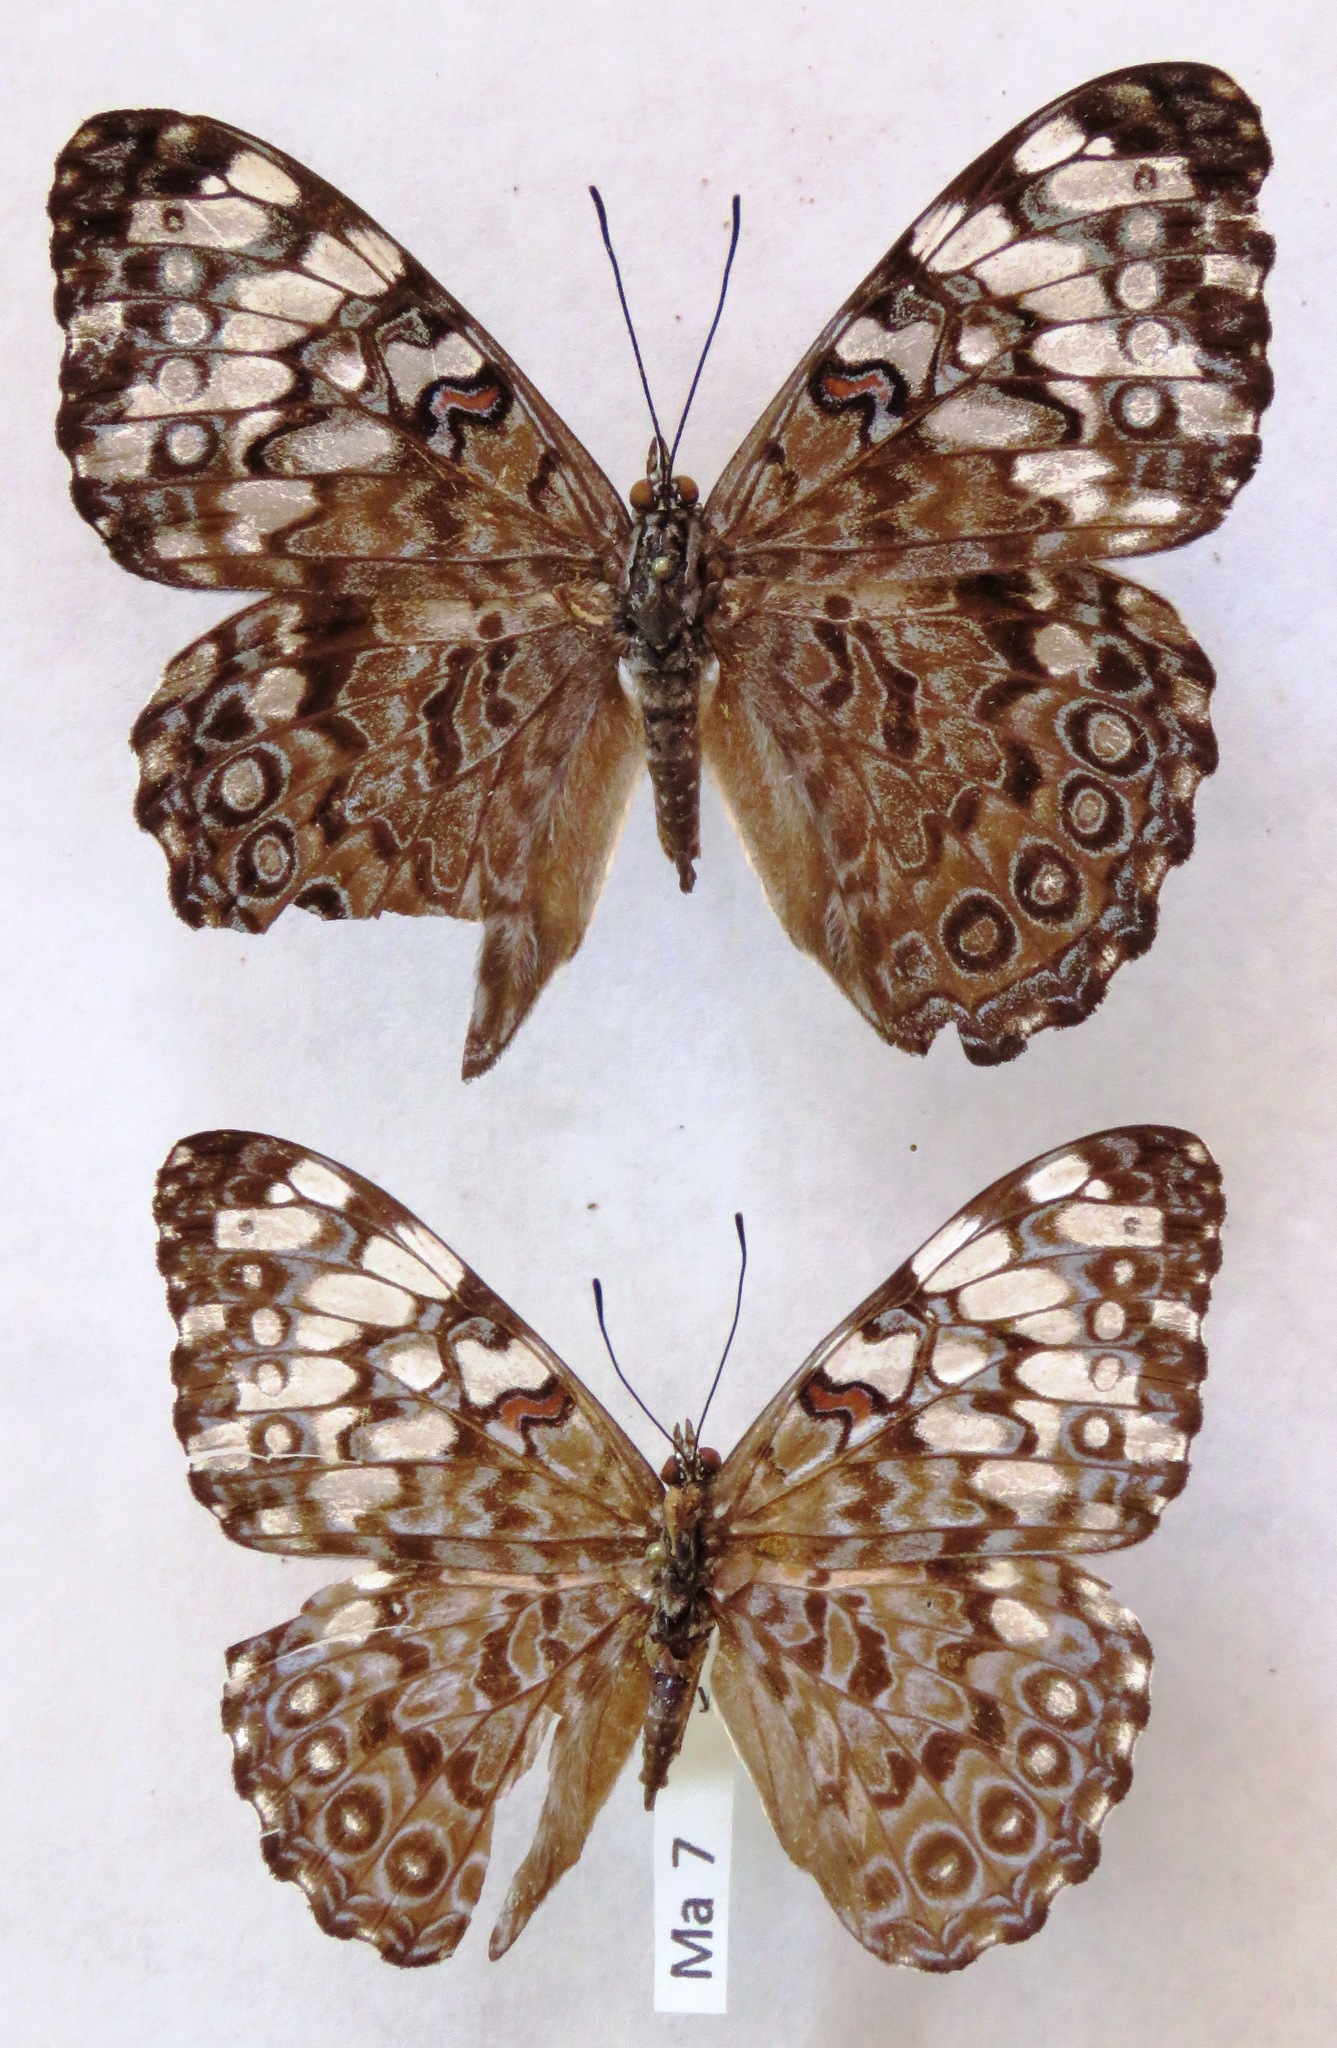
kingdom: Animalia
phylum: Arthropoda
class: Insecta
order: Lepidoptera
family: Nymphalidae
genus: Hamadryas
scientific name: Hamadryas guatemalena
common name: Guatemalan cracker
